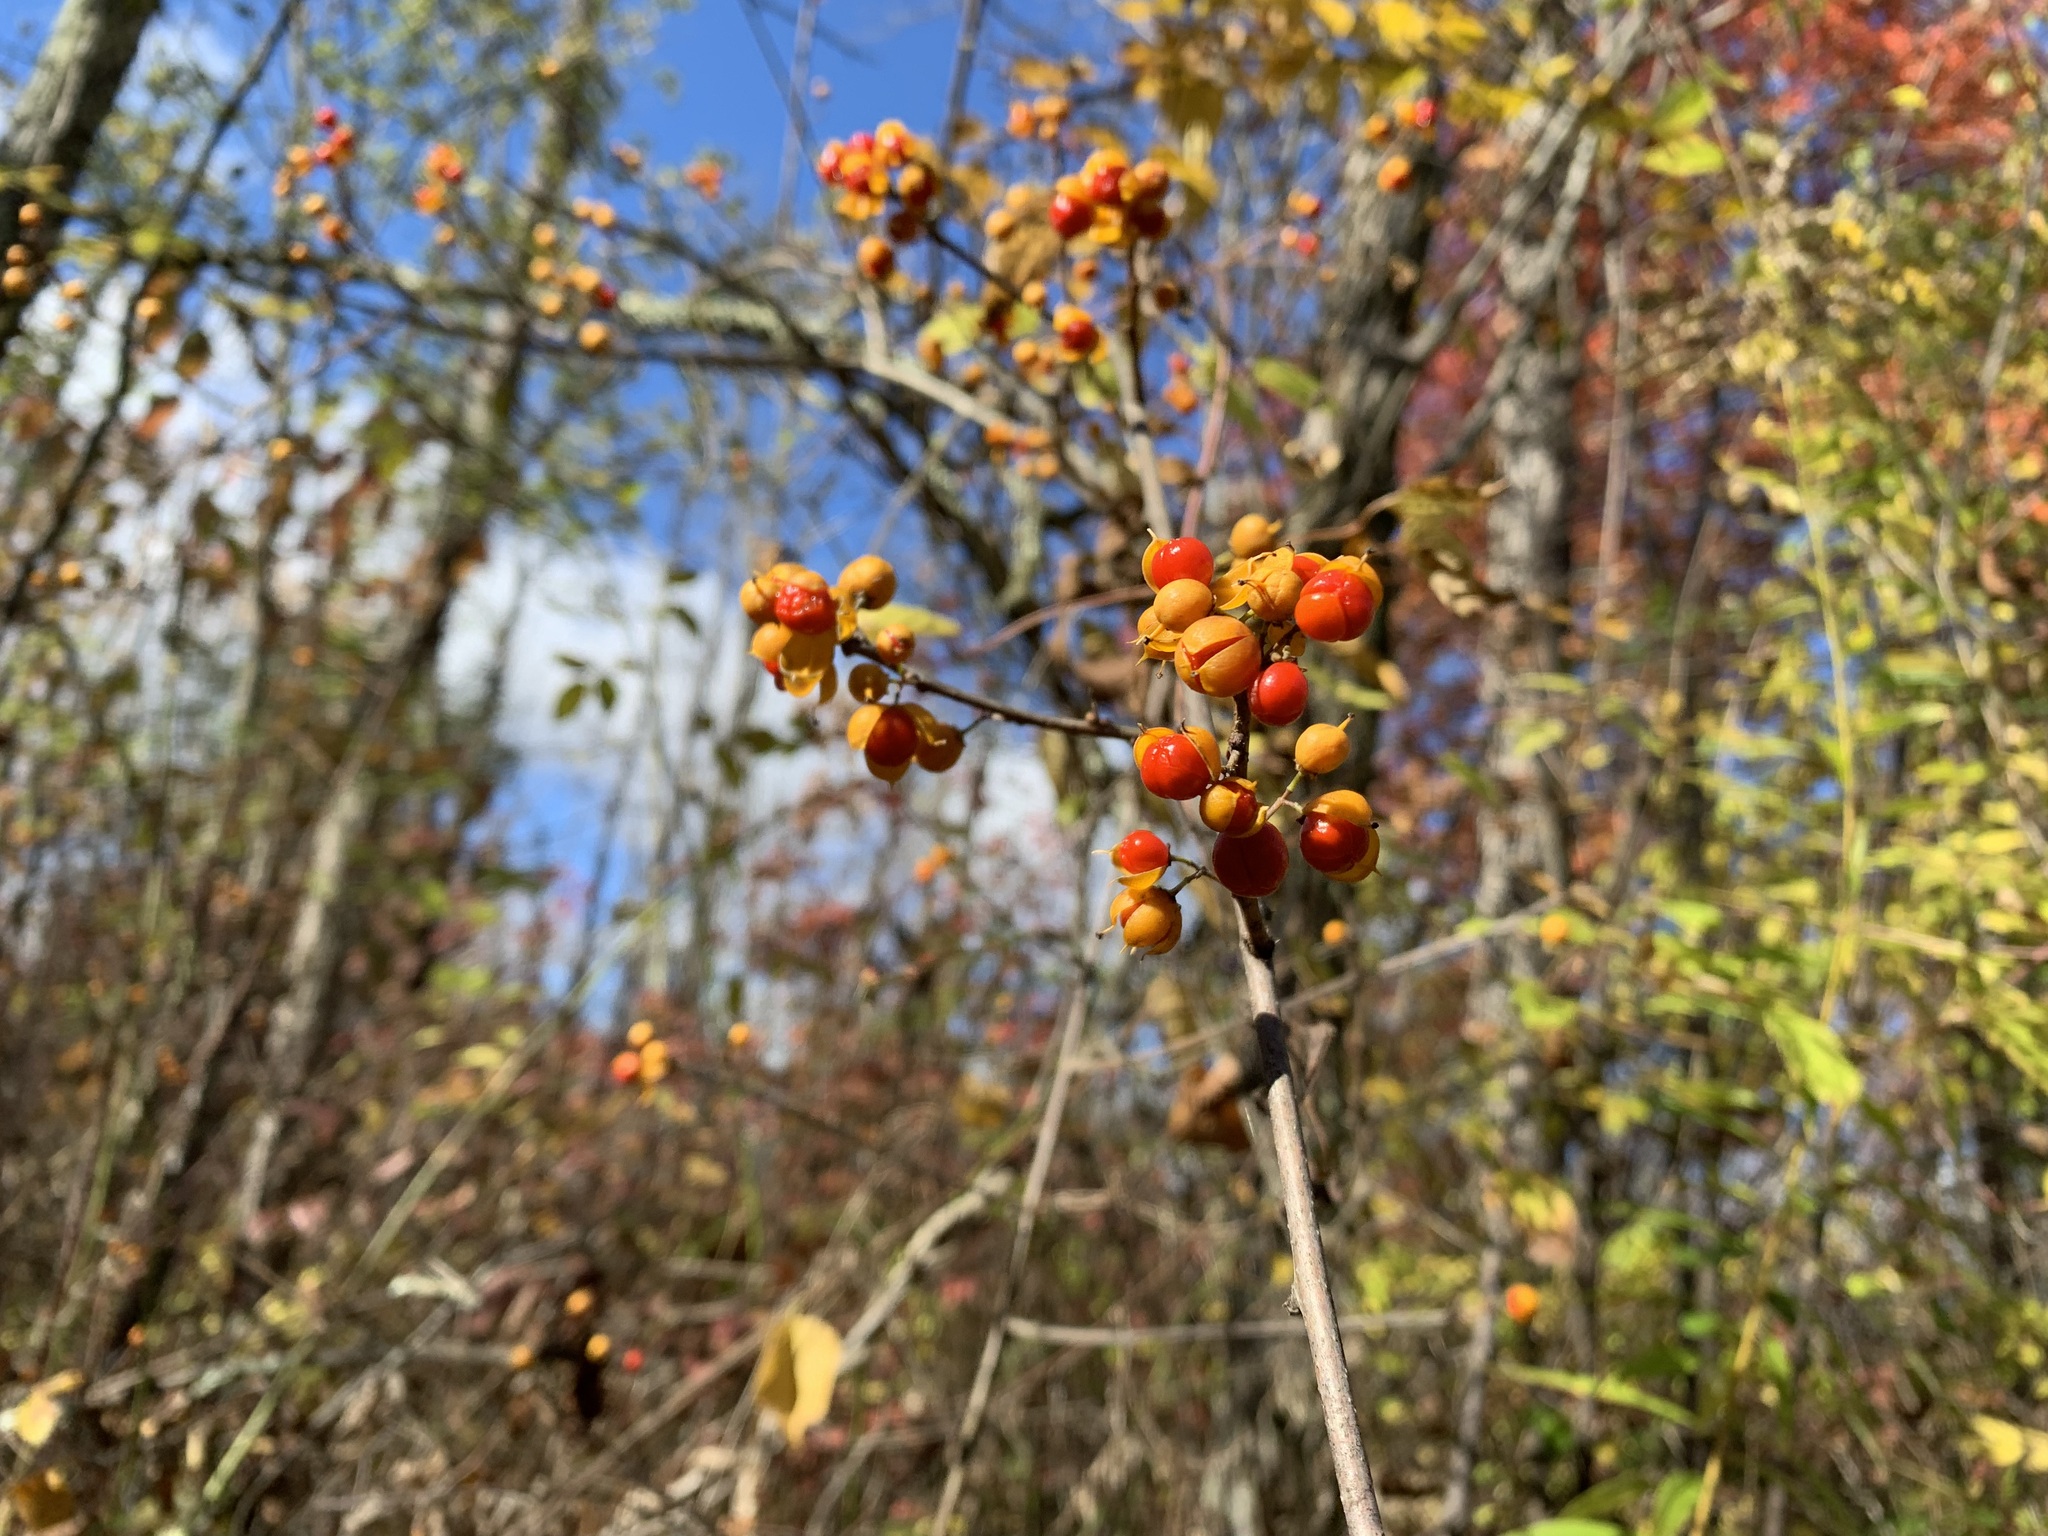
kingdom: Plantae
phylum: Tracheophyta
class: Magnoliopsida
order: Celastrales
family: Celastraceae
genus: Celastrus
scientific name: Celastrus orbiculatus
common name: Oriental bittersweet
